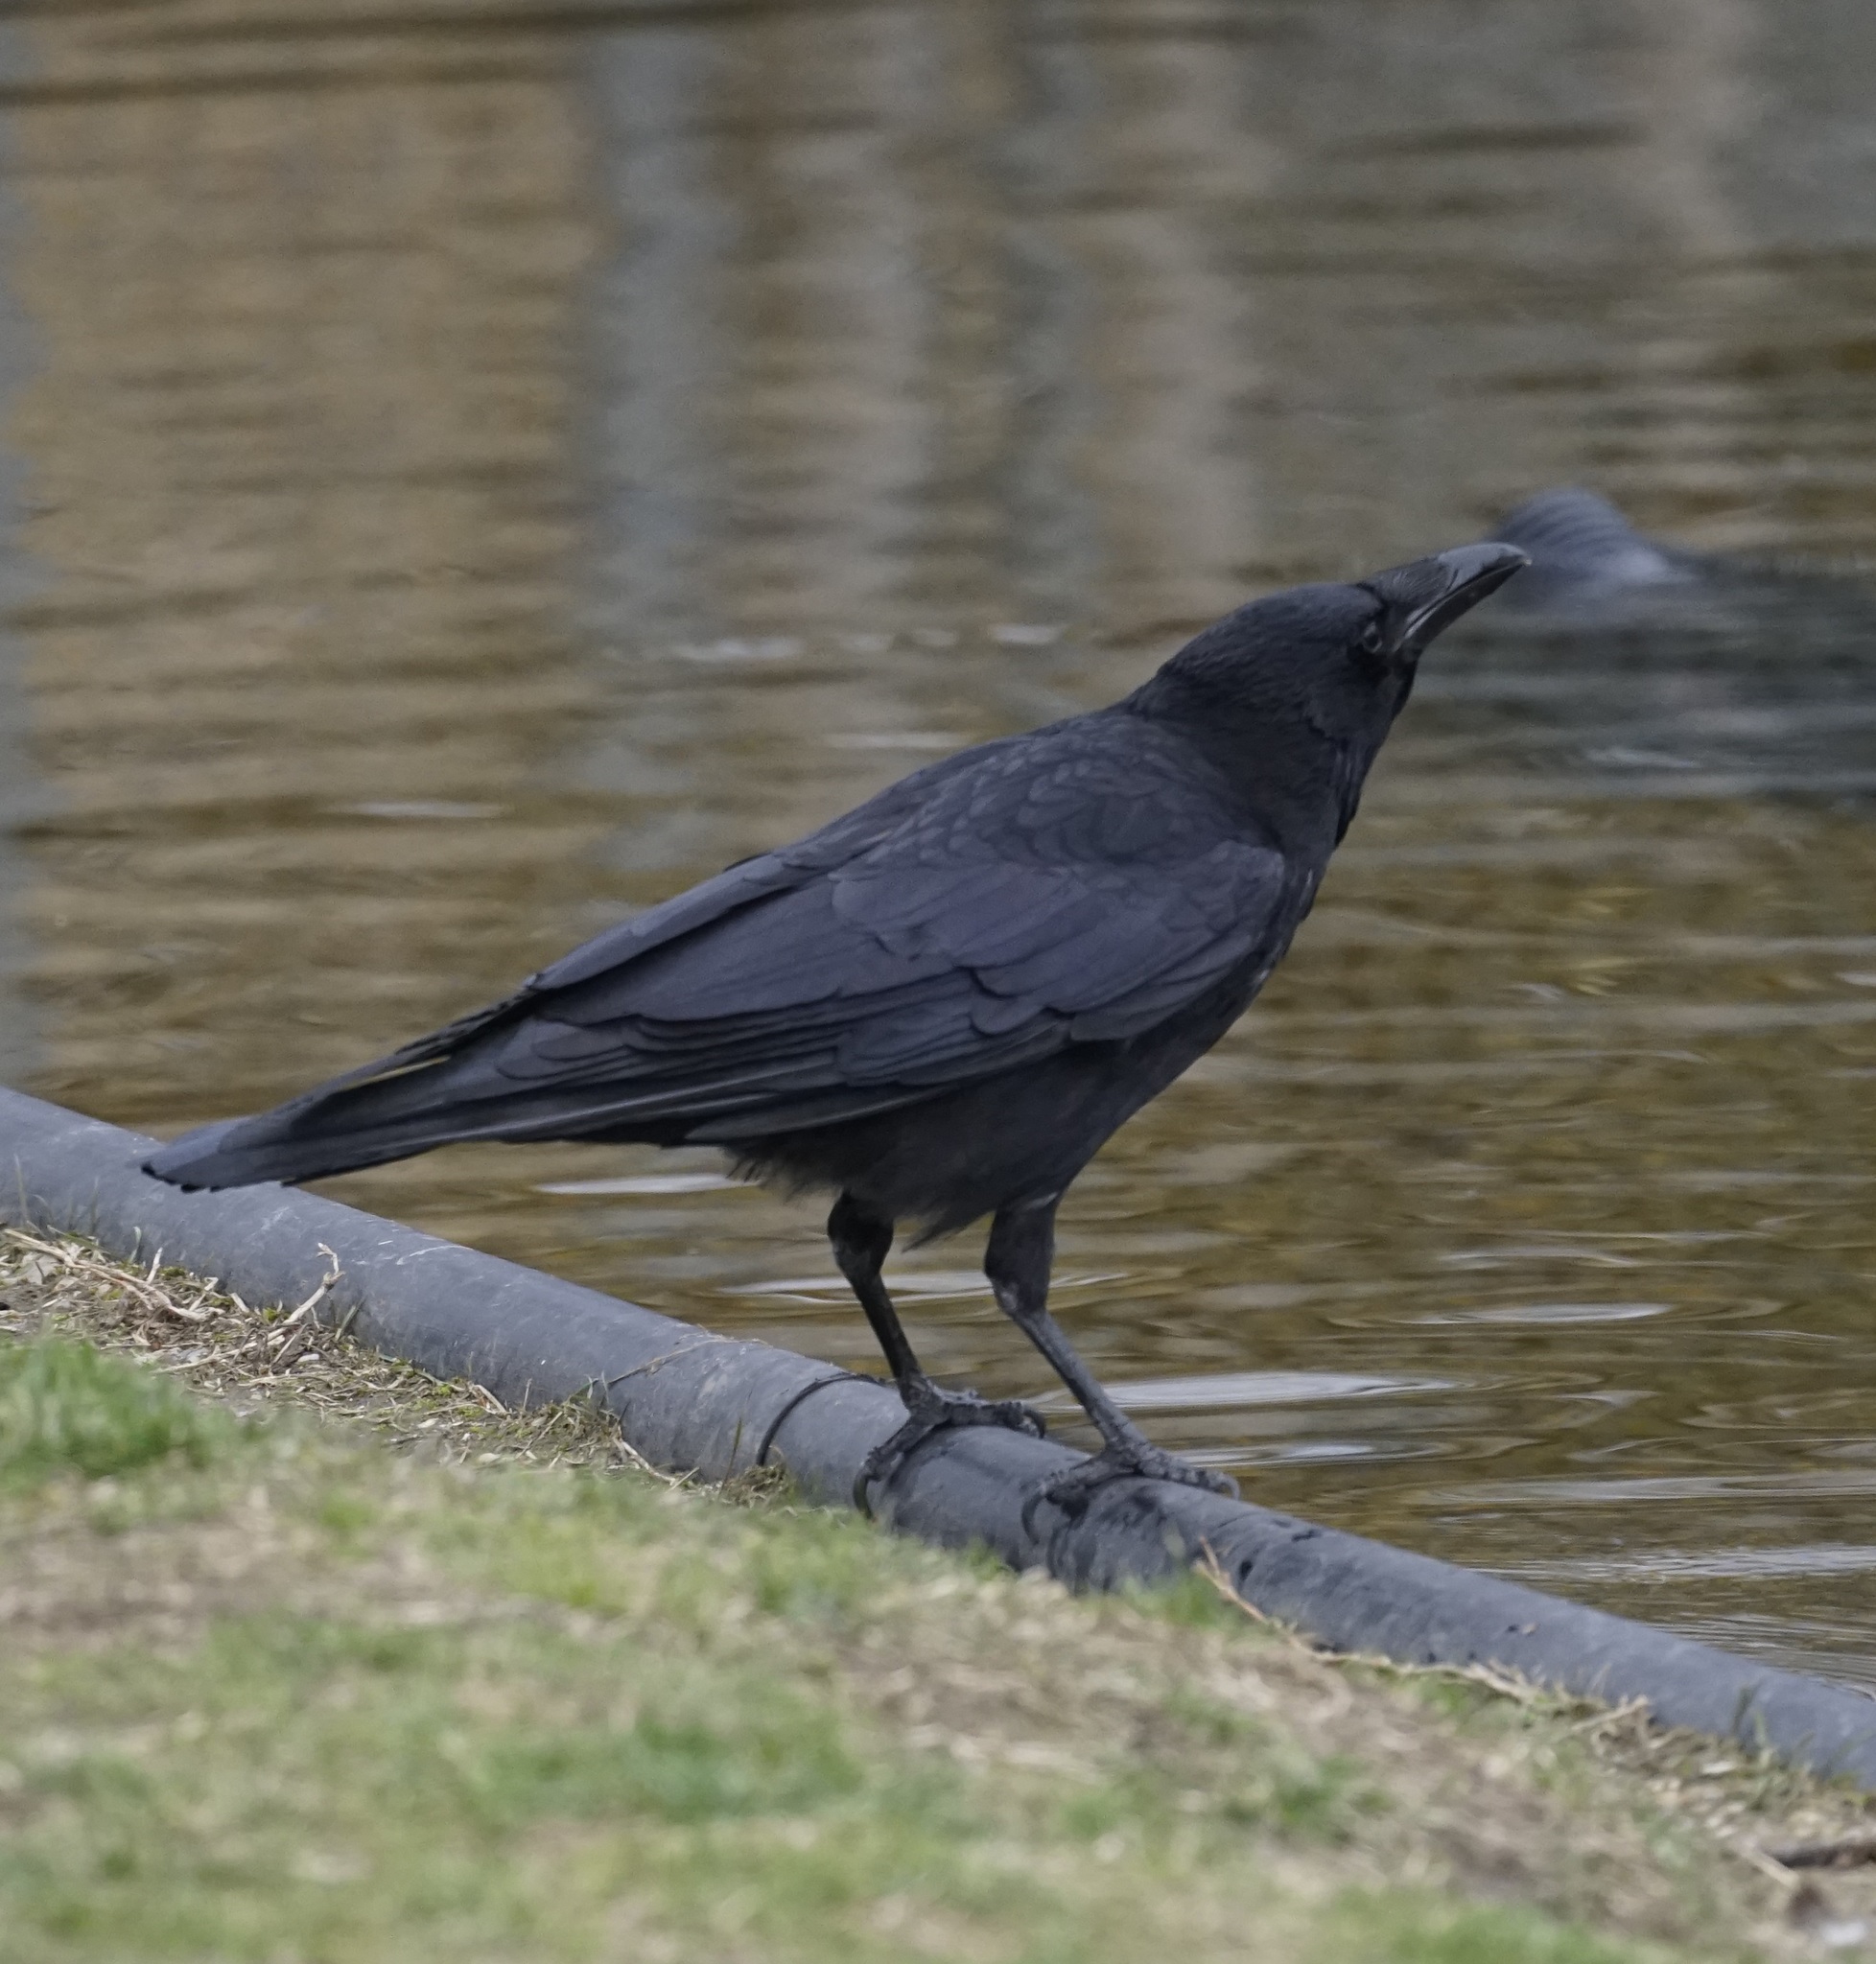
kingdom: Animalia
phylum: Chordata
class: Aves
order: Passeriformes
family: Corvidae
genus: Corvus
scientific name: Corvus corone
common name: Carrion crow
